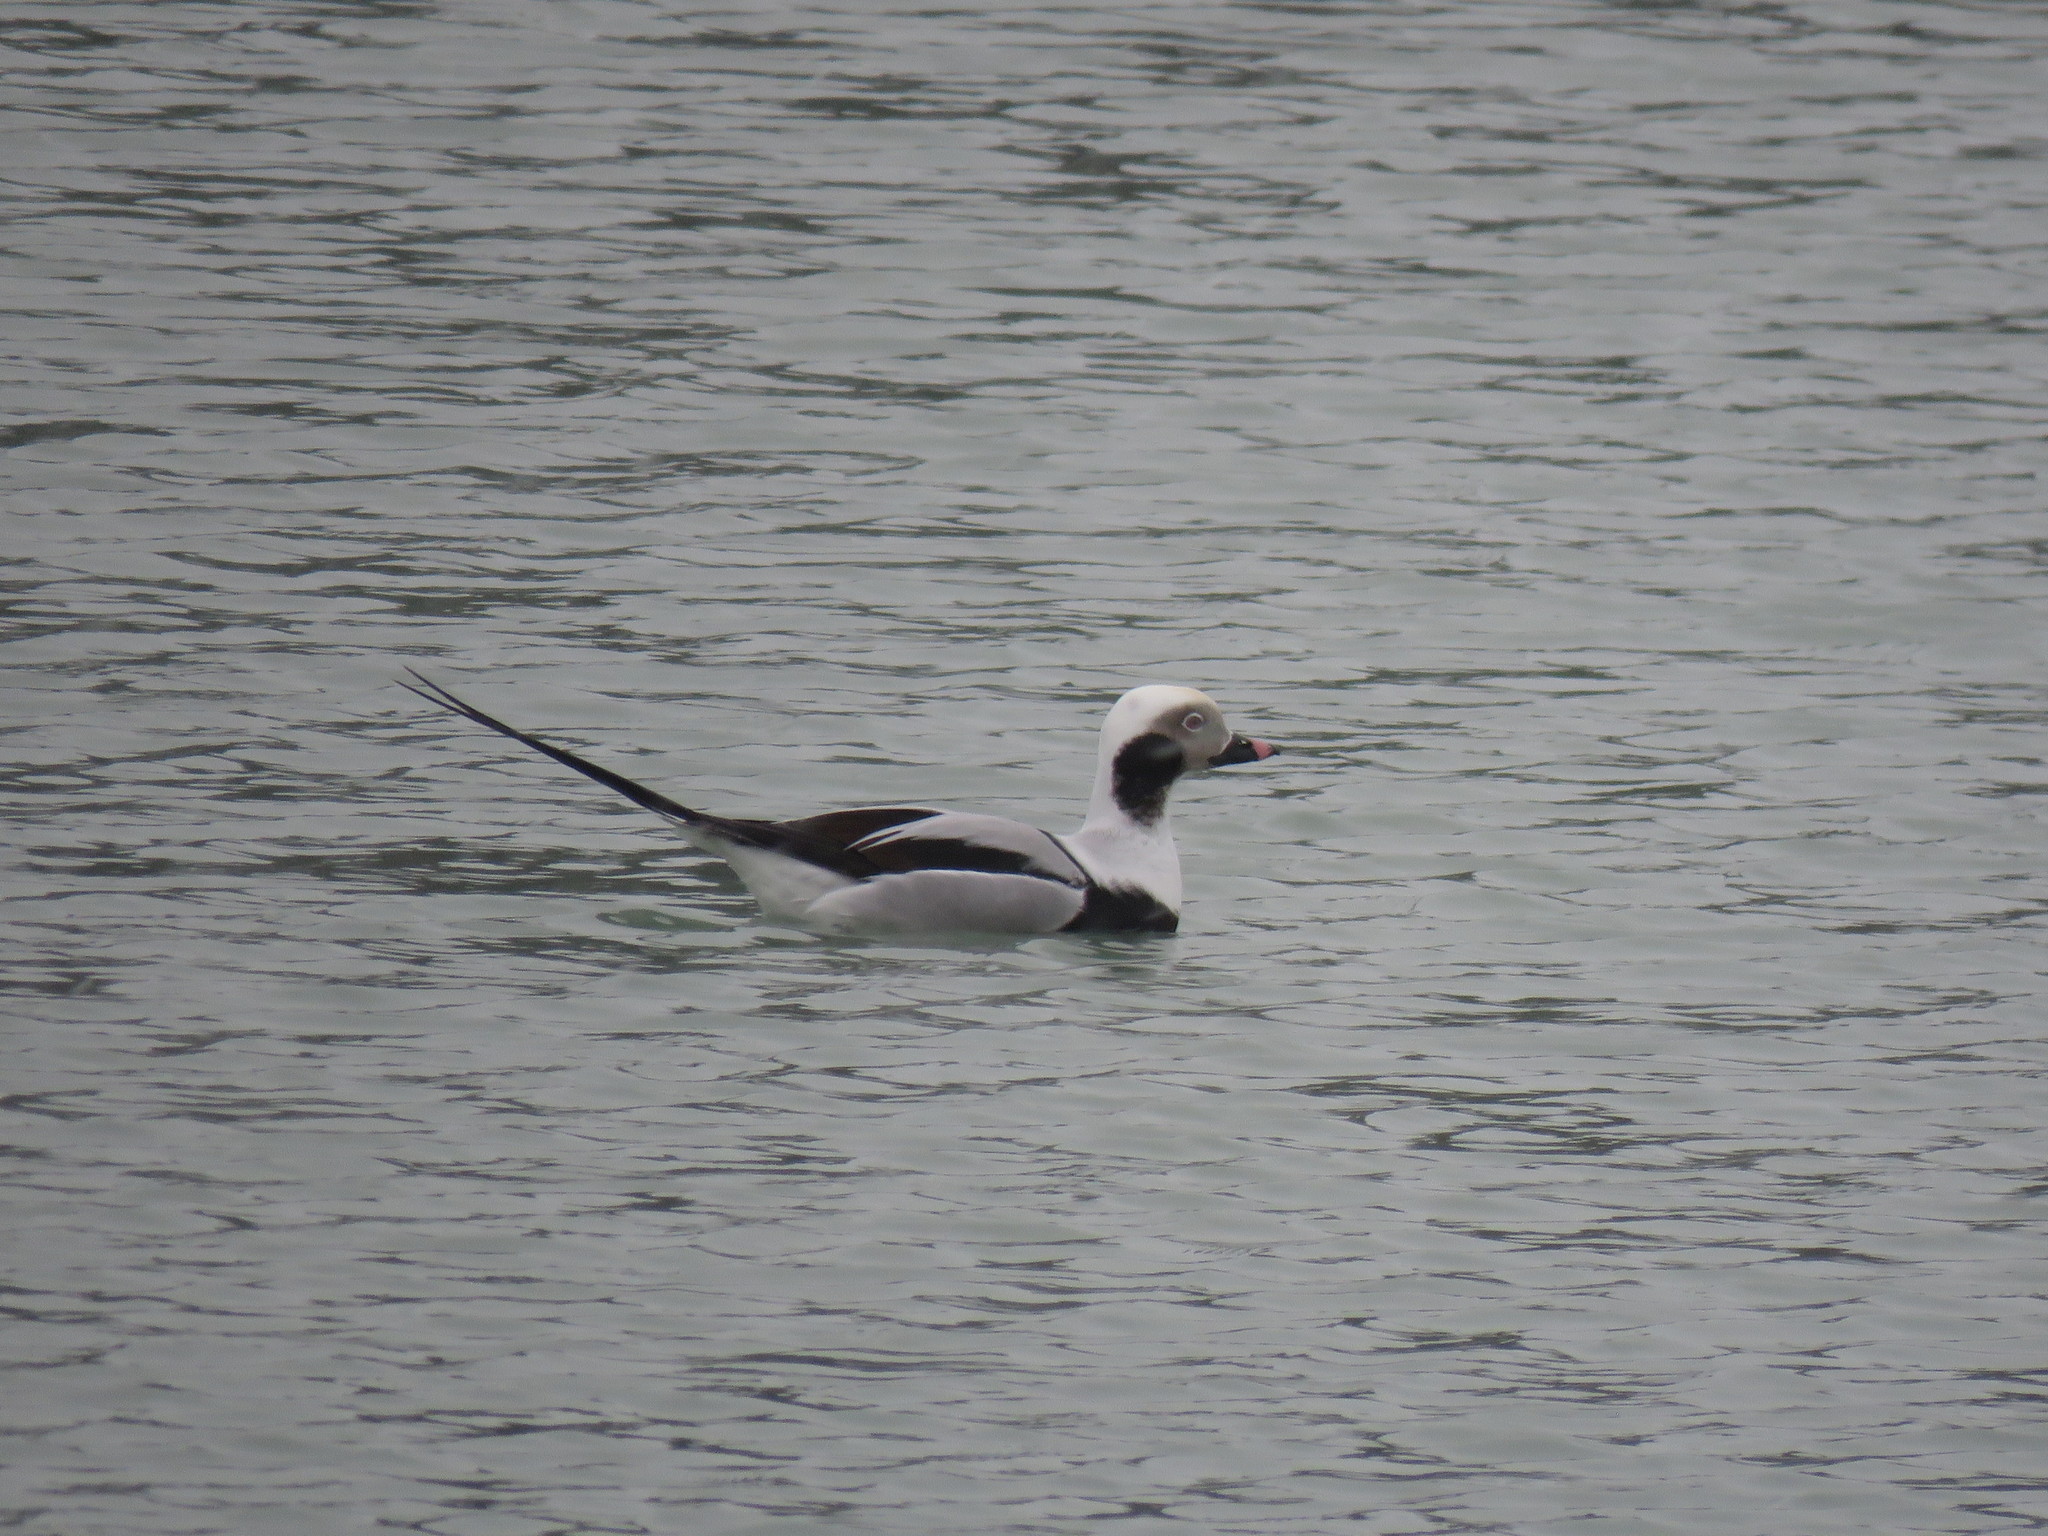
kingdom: Animalia
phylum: Chordata
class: Aves
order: Anseriformes
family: Anatidae
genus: Clangula
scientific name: Clangula hyemalis
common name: Long-tailed duck
